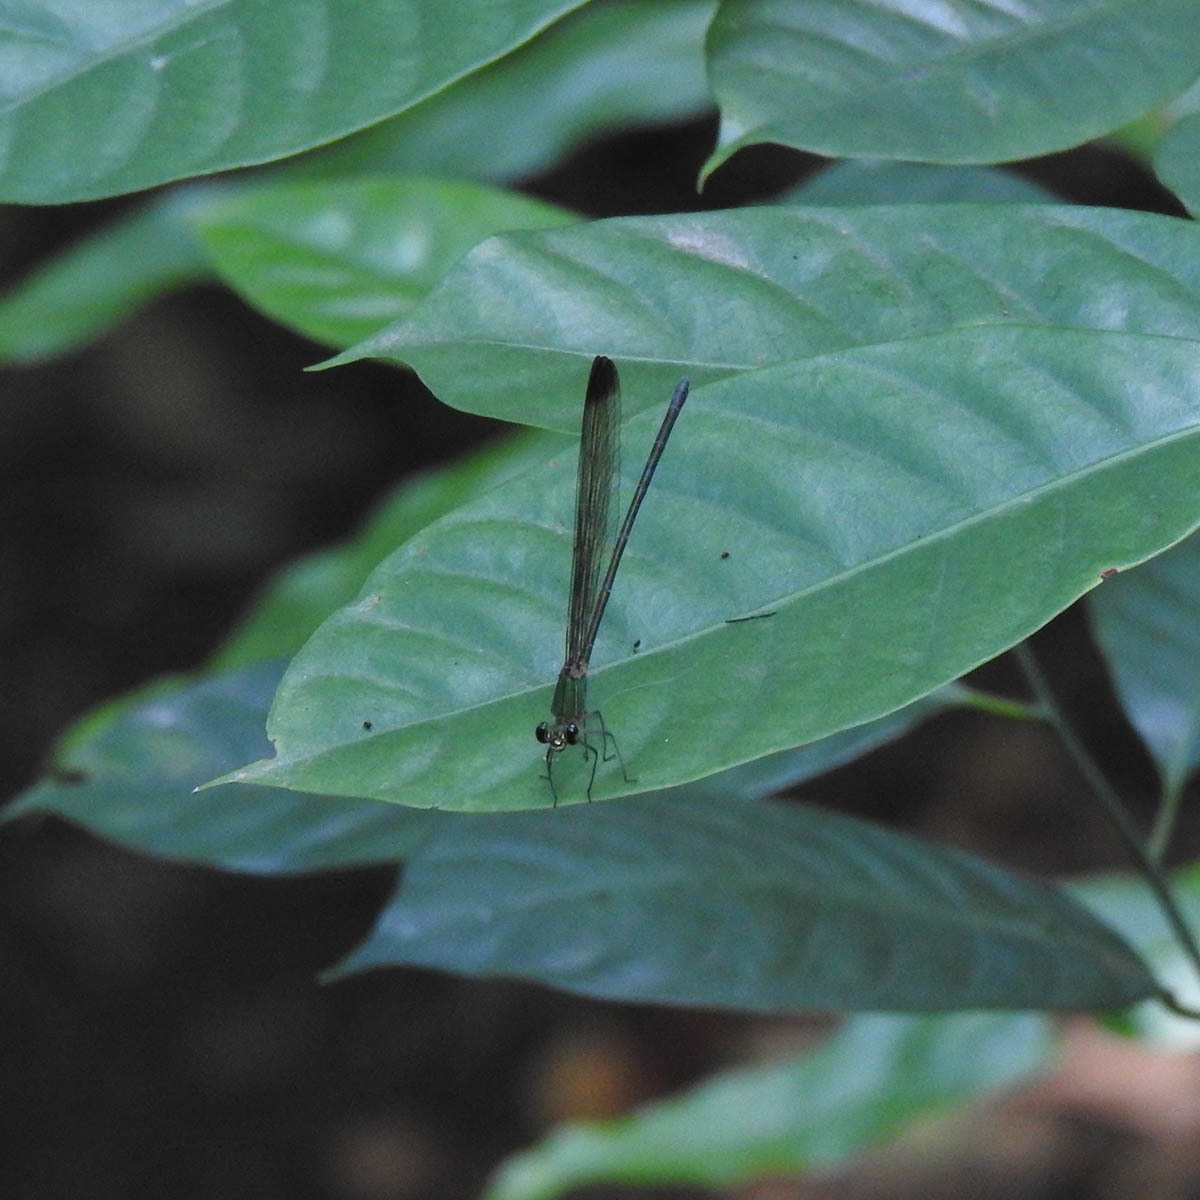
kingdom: Animalia
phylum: Arthropoda
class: Insecta
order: Odonata
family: Calopterygidae
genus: Vestalis
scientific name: Vestalis apicalis
